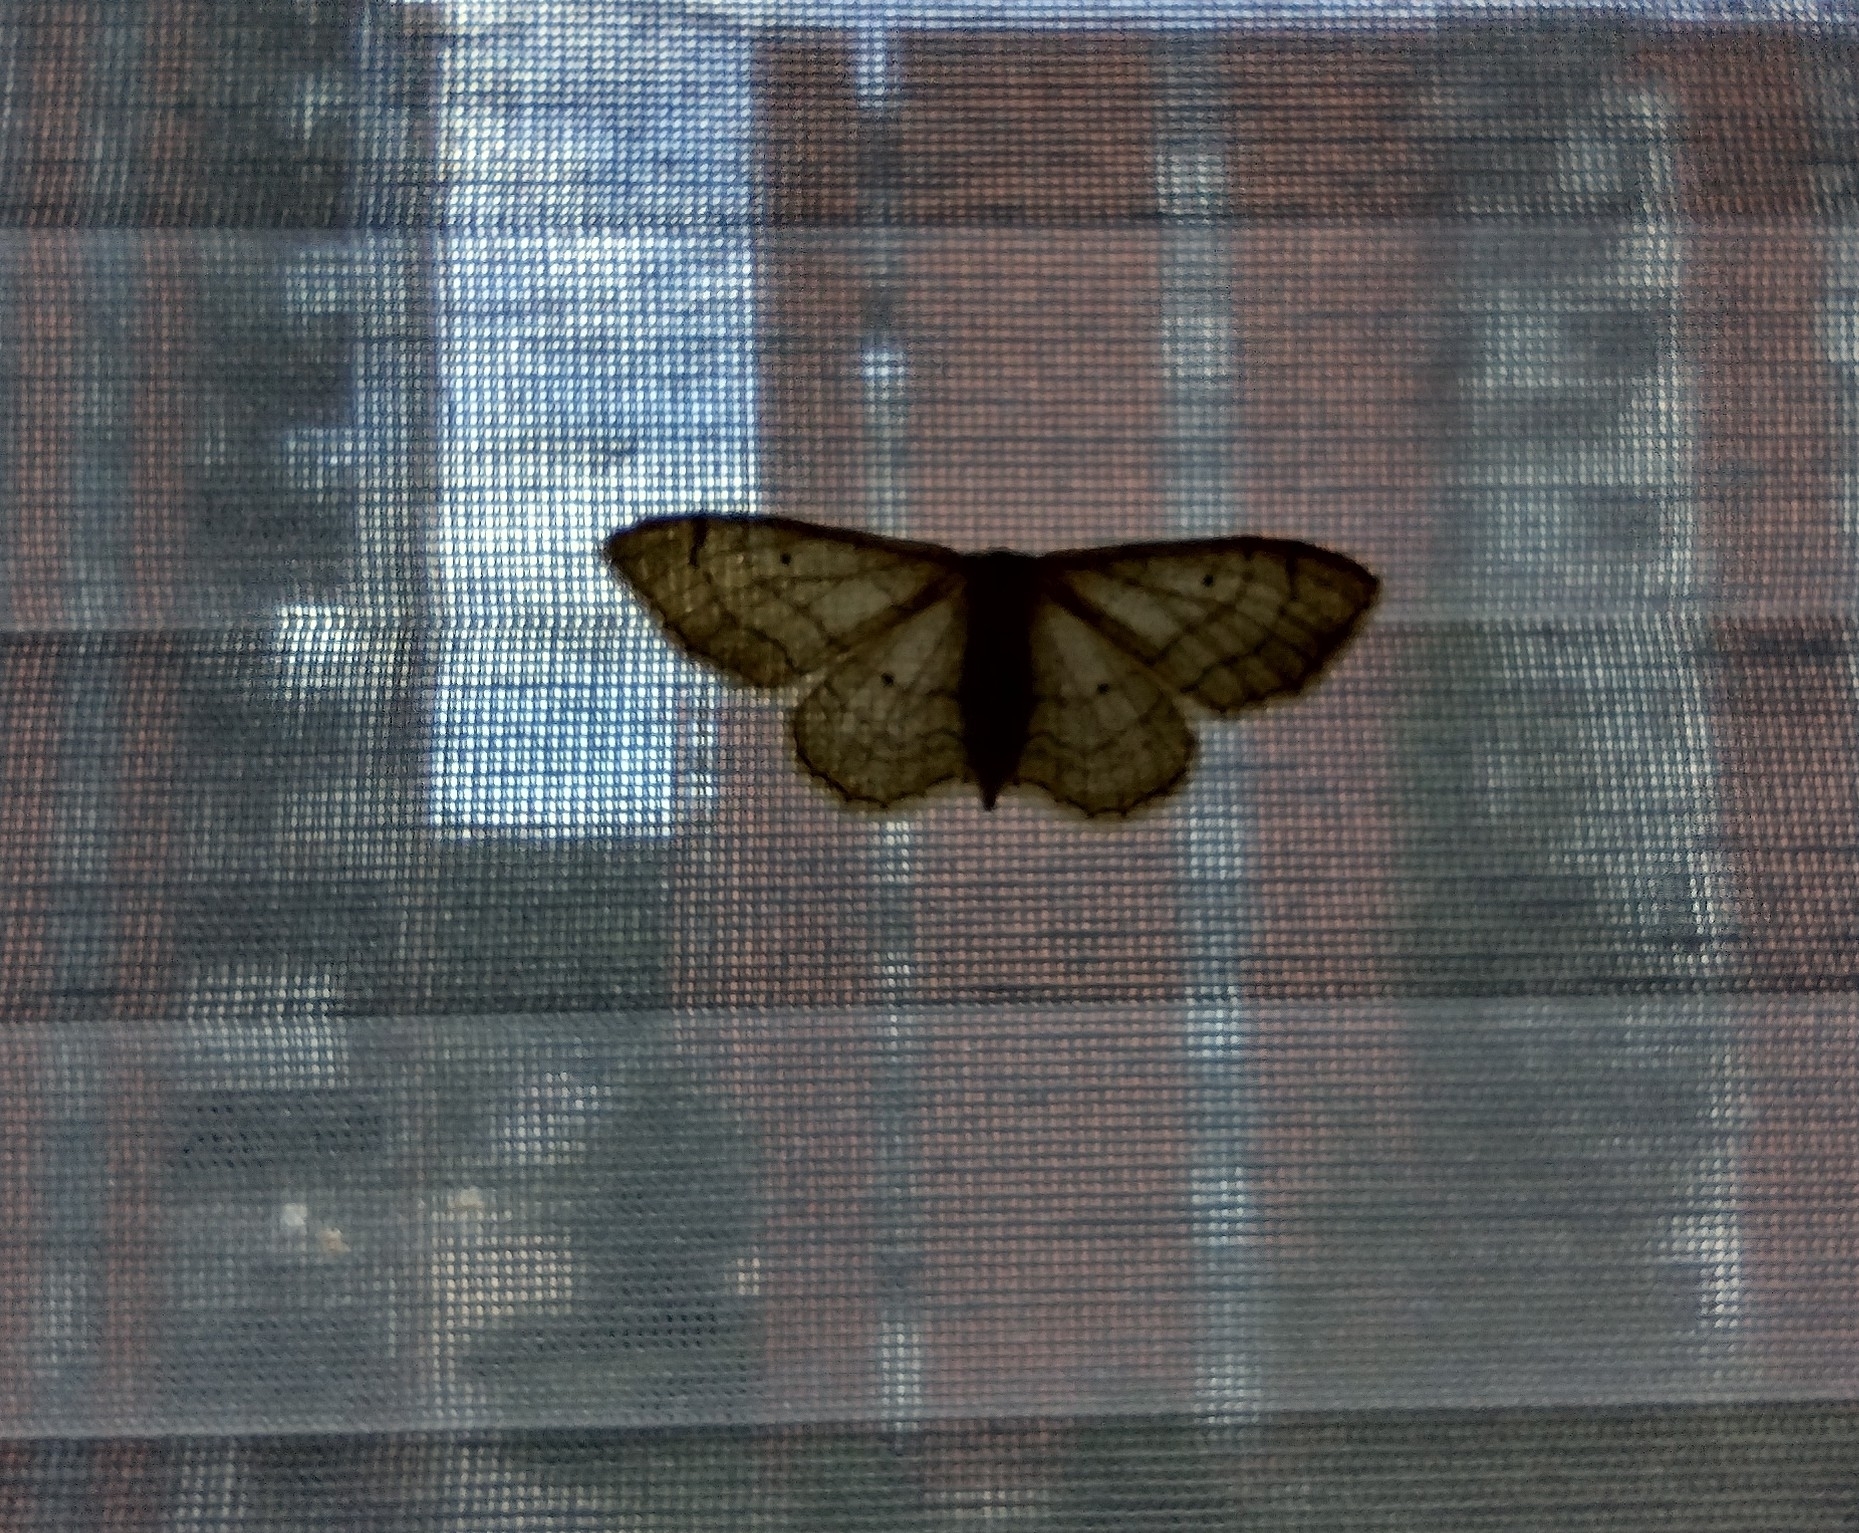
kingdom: Animalia
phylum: Arthropoda
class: Insecta
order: Lepidoptera
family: Geometridae
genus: Idaea
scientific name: Idaea aversata
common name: Riband wave
